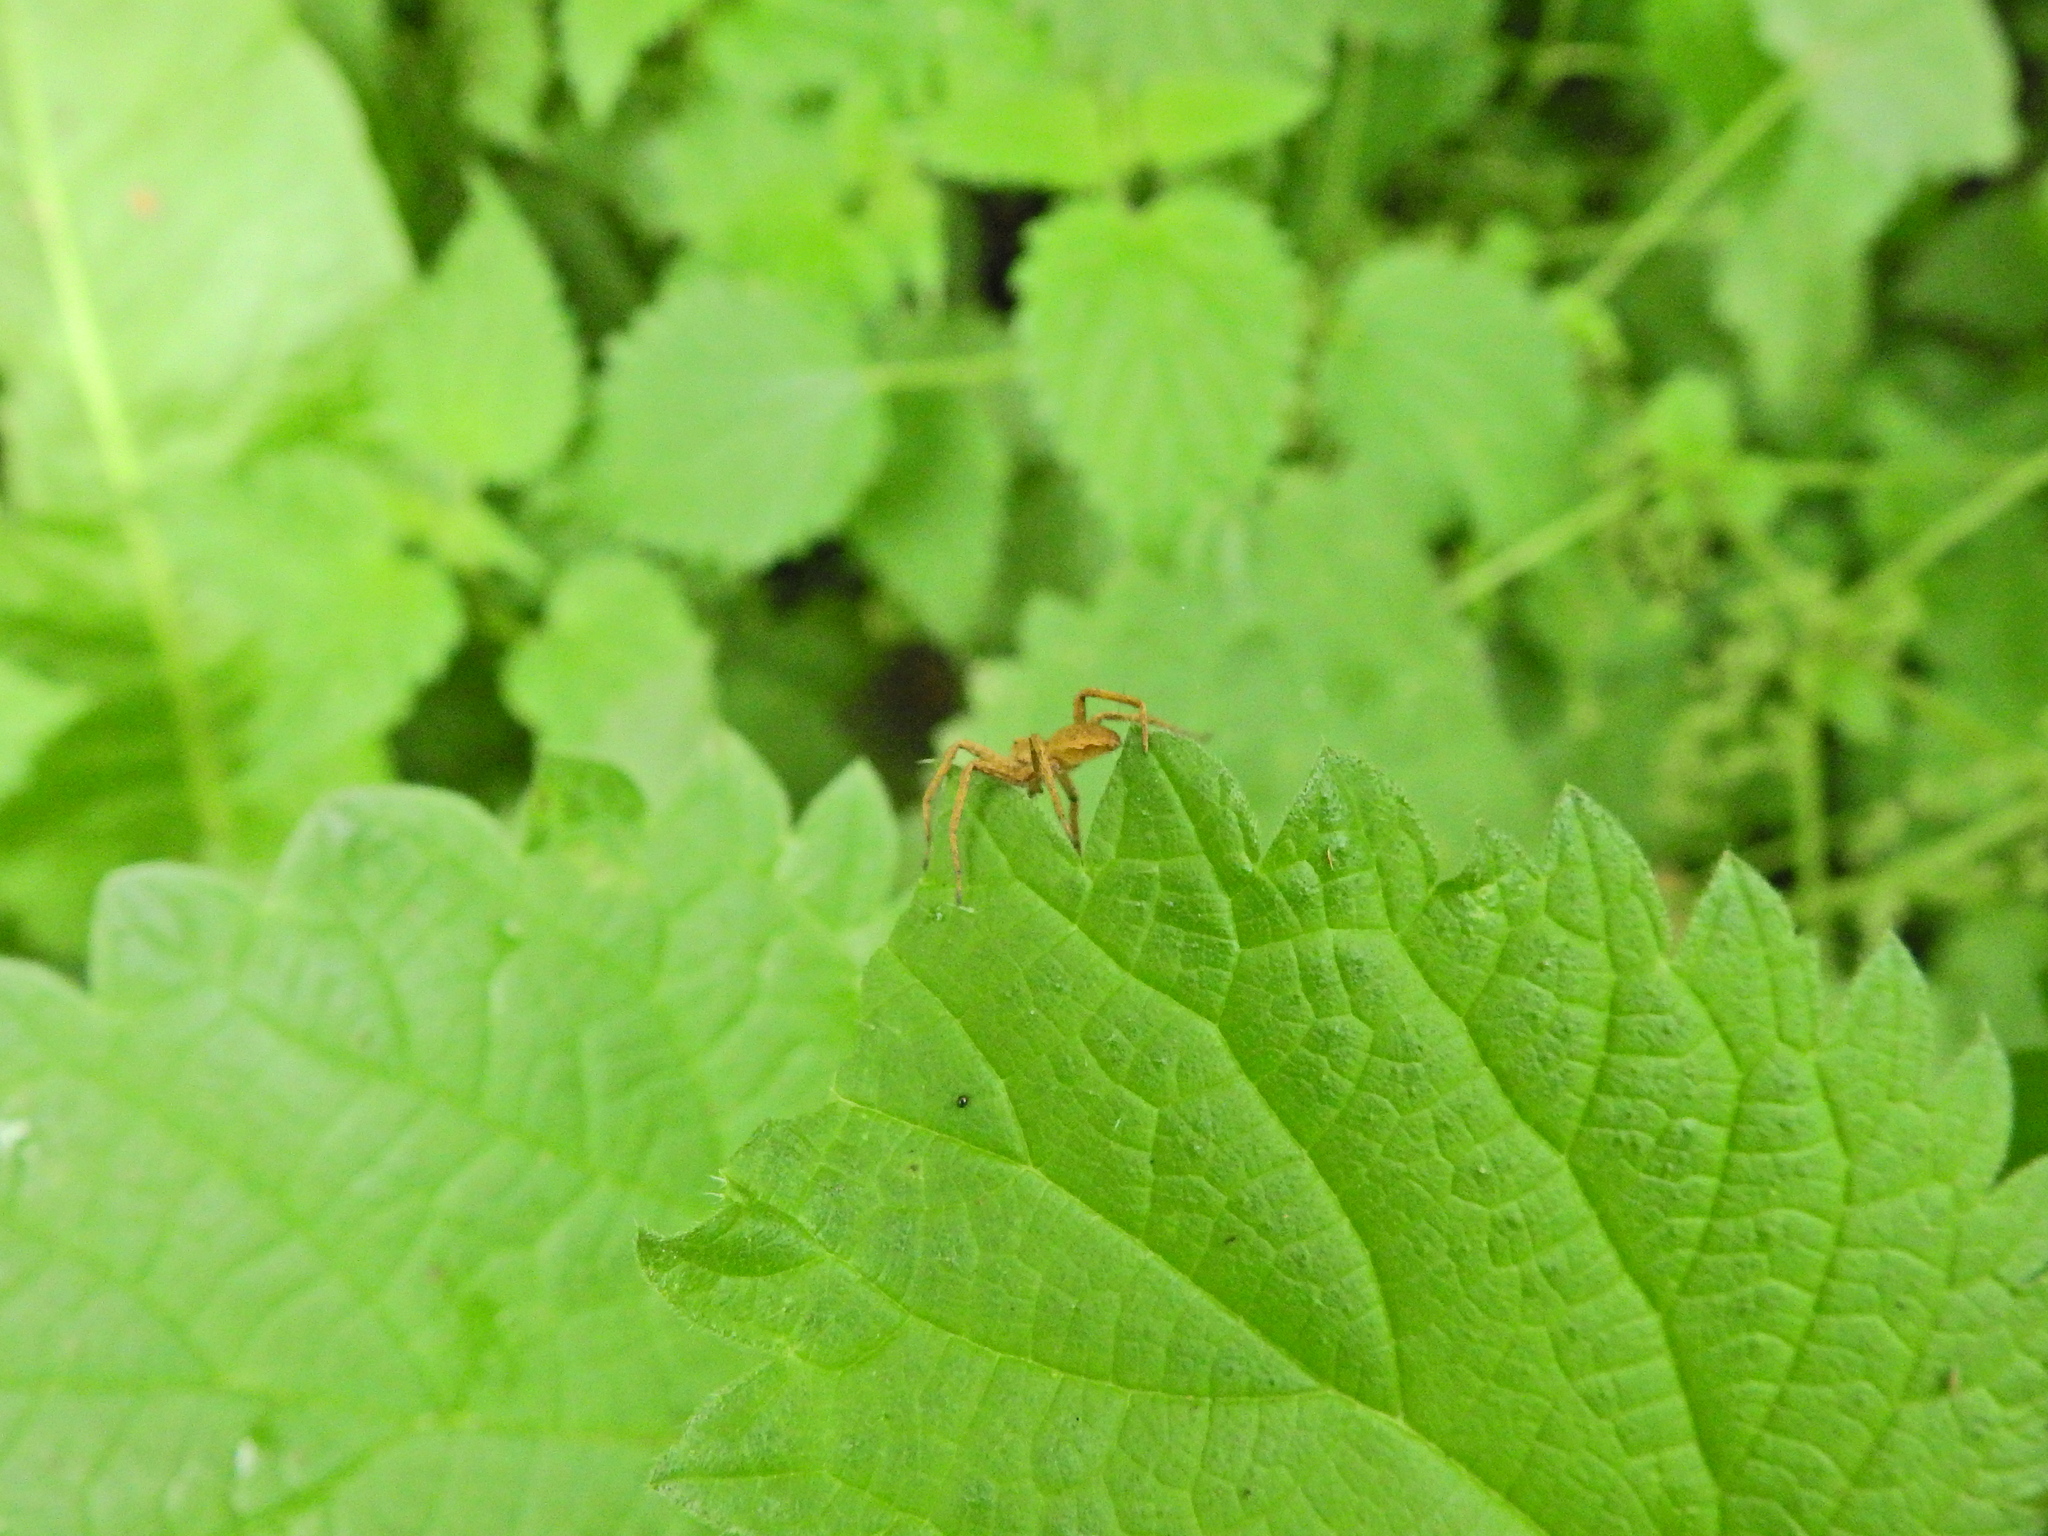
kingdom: Animalia
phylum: Arthropoda
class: Arachnida
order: Araneae
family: Pisauridae
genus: Pisaura
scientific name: Pisaura mirabilis
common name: Tent spider
